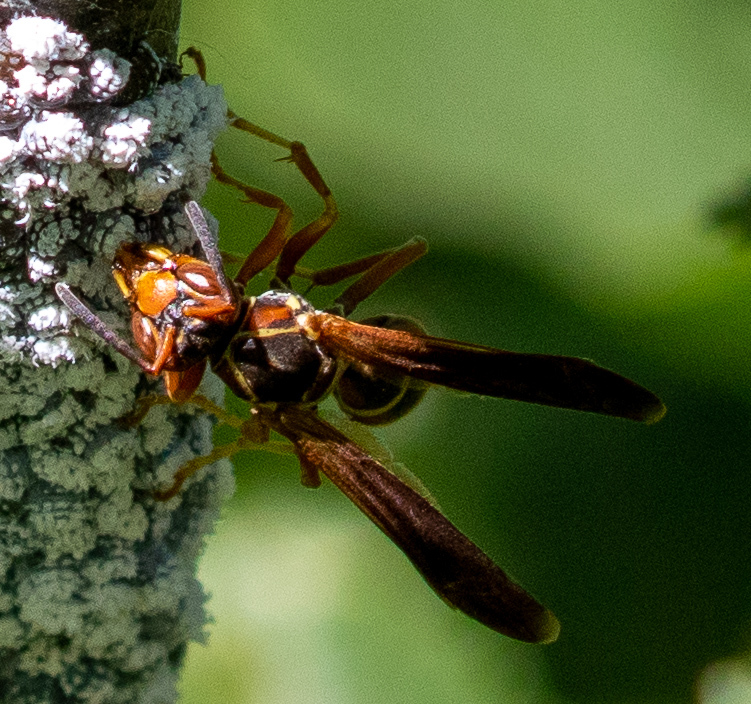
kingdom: Animalia
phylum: Arthropoda
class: Insecta
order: Hymenoptera
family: Eumenidae
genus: Polistes
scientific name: Polistes fuscatus
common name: Dark paper wasp
